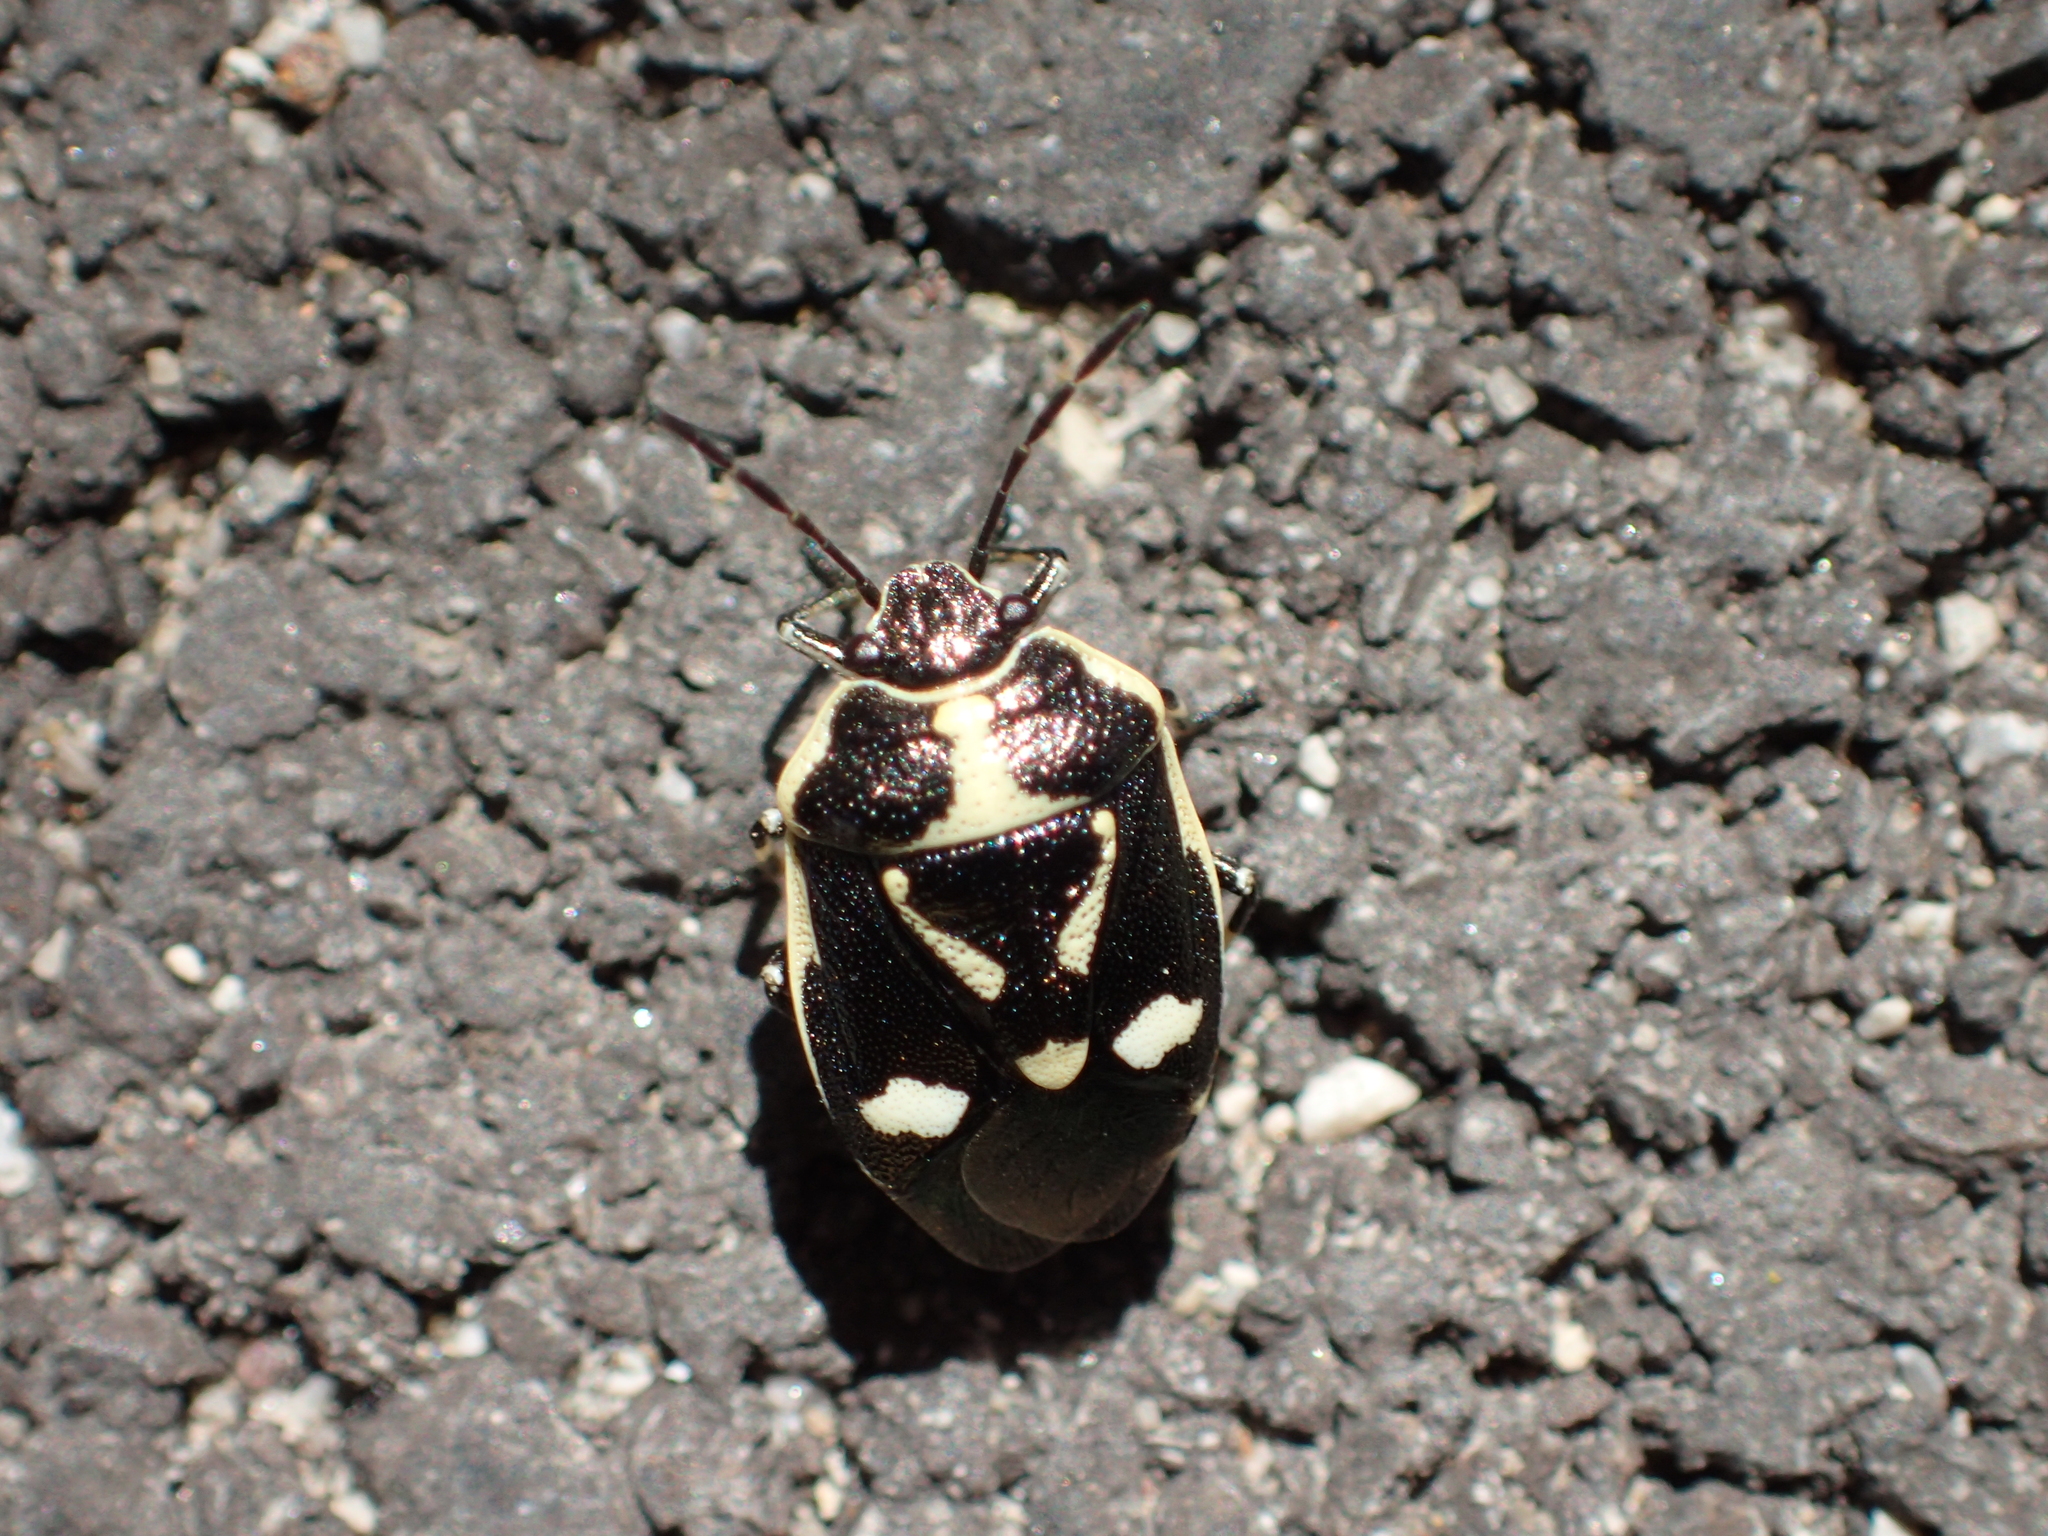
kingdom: Animalia
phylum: Arthropoda
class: Insecta
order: Hemiptera
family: Pentatomidae
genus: Eurydema
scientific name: Eurydema oleracea
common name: Cabbage bug
